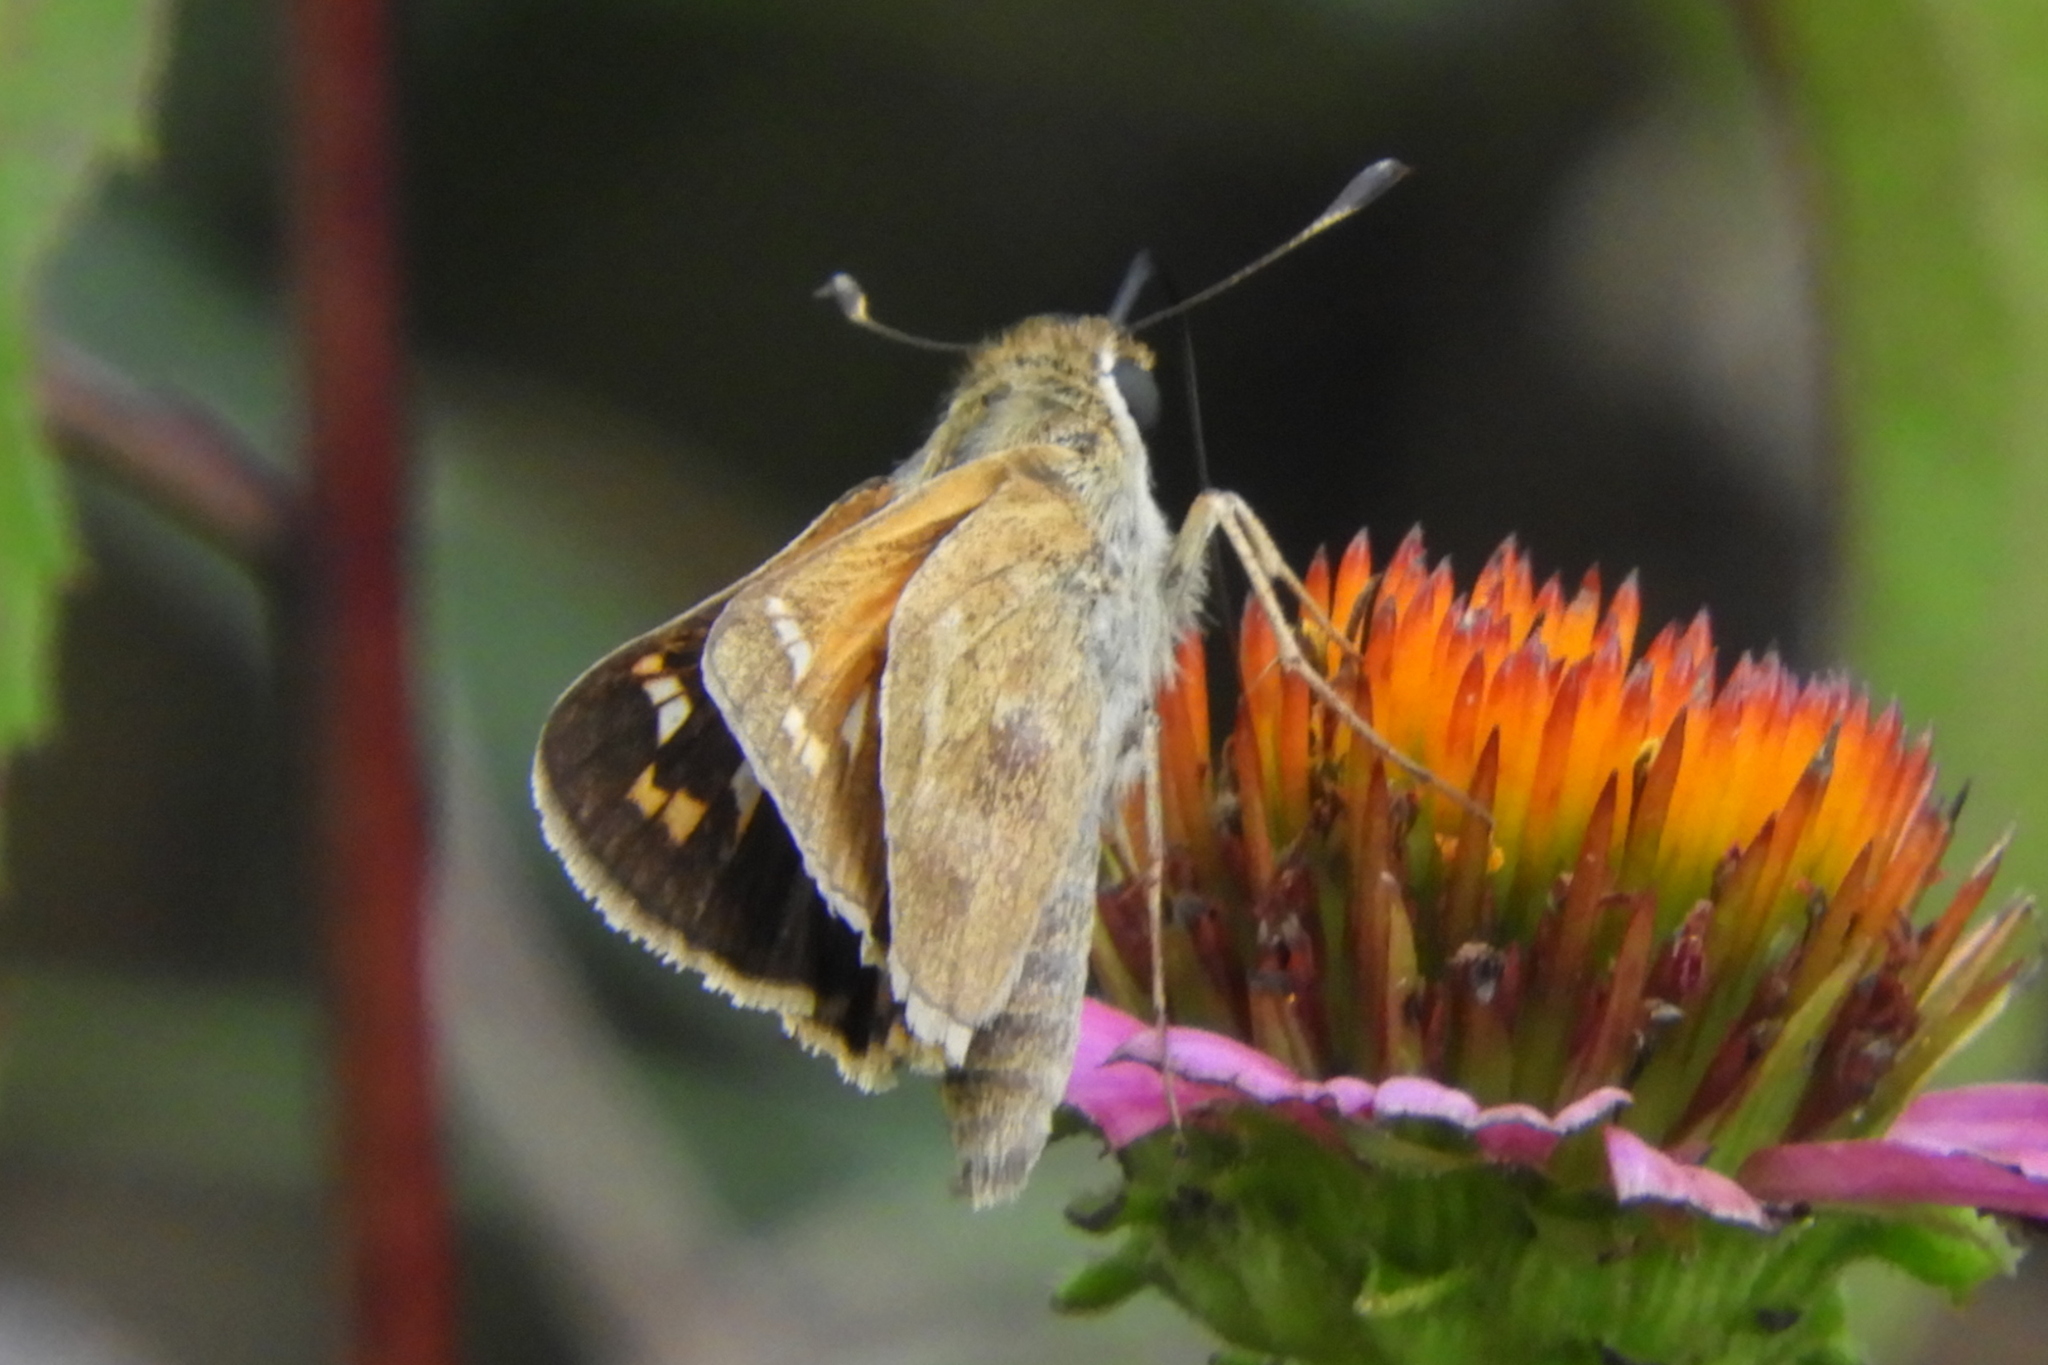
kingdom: Animalia
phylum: Arthropoda
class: Insecta
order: Lepidoptera
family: Hesperiidae
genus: Atalopedes
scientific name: Atalopedes
